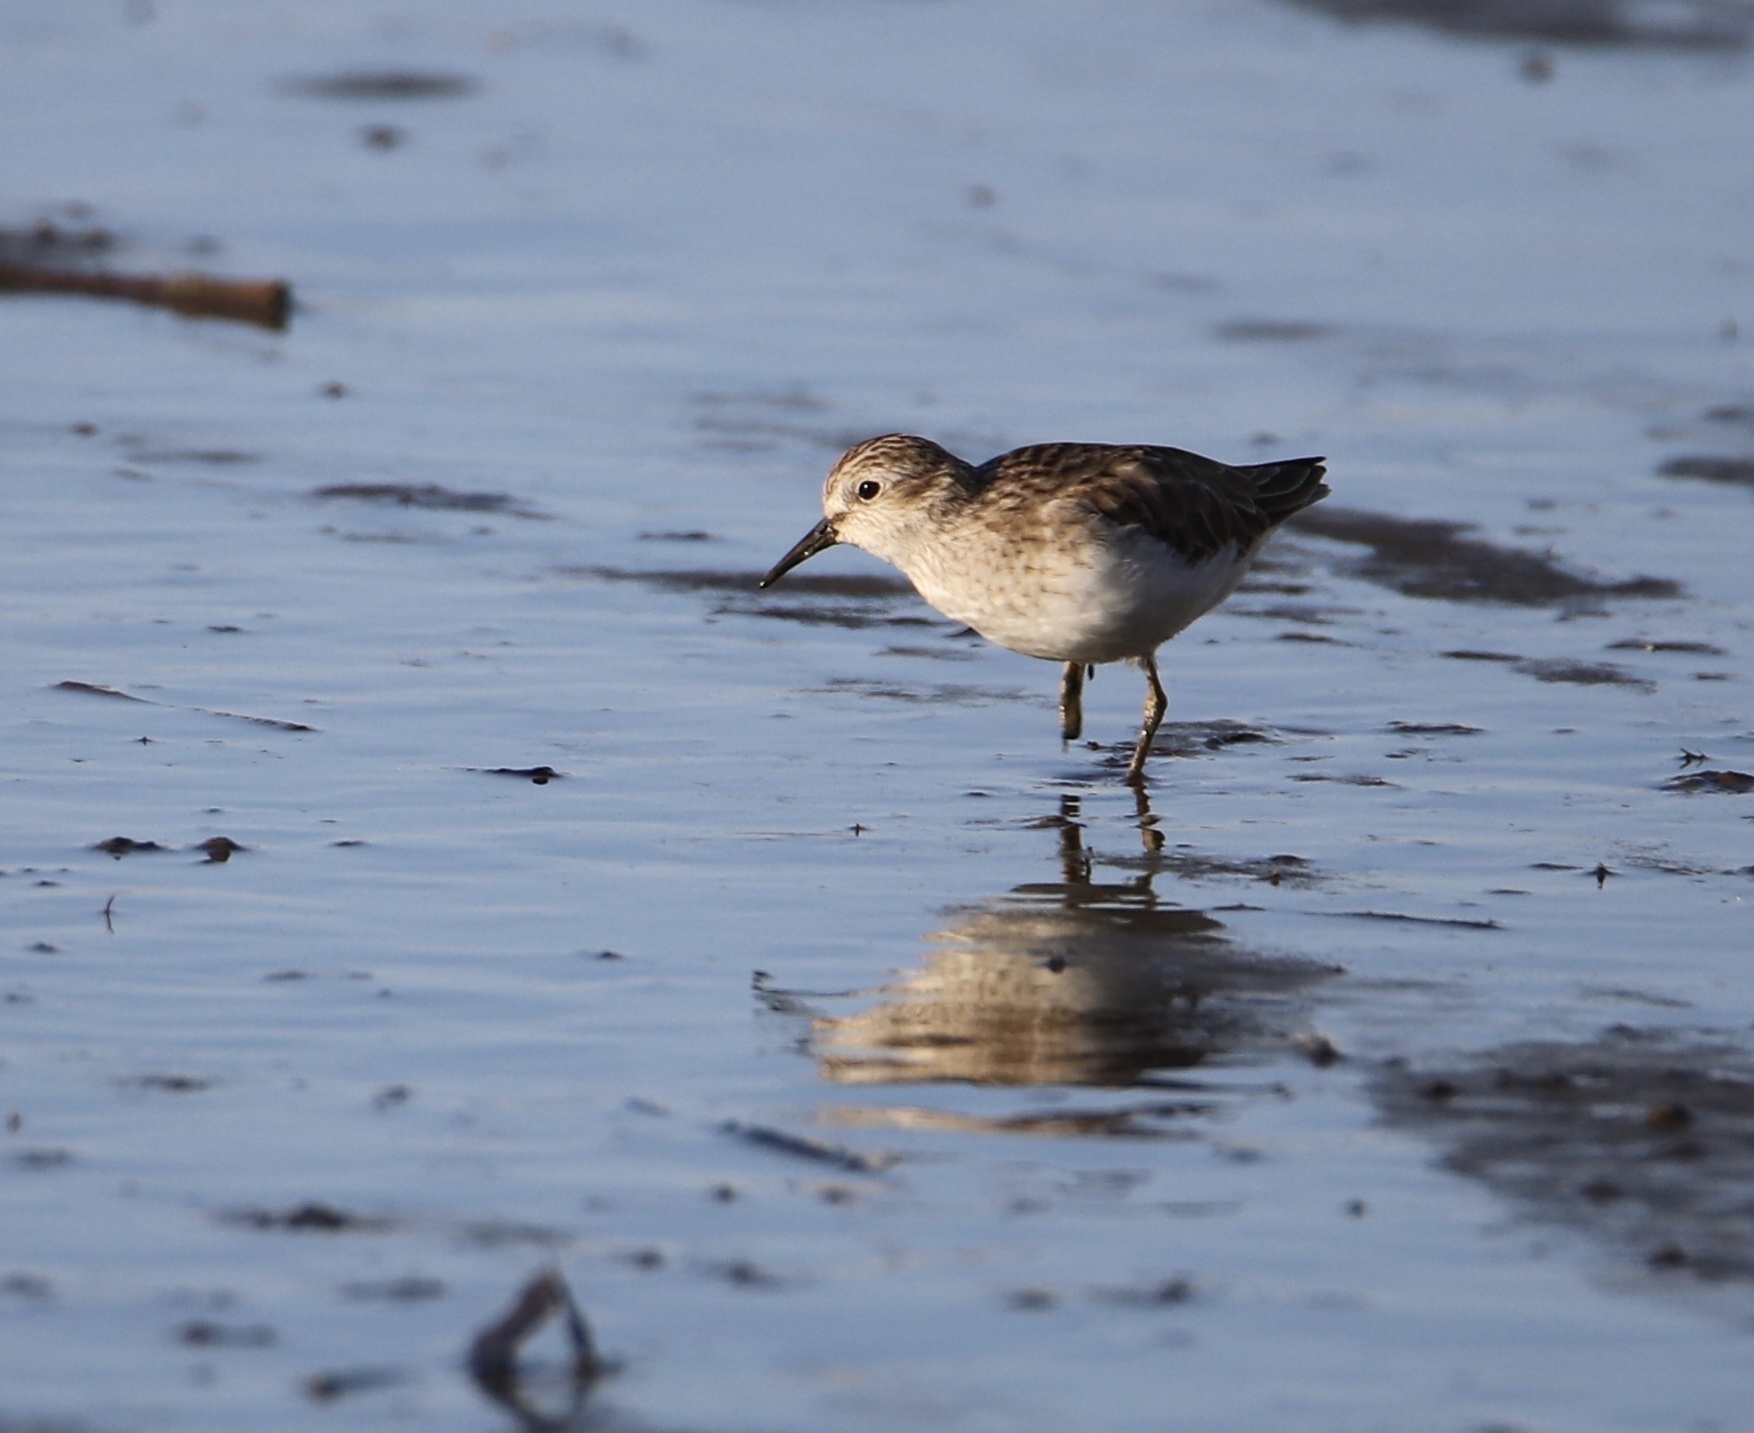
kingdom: Animalia
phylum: Chordata
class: Aves
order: Charadriiformes
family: Scolopacidae
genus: Calidris
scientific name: Calidris pusilla
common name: Semipalmated sandpiper
